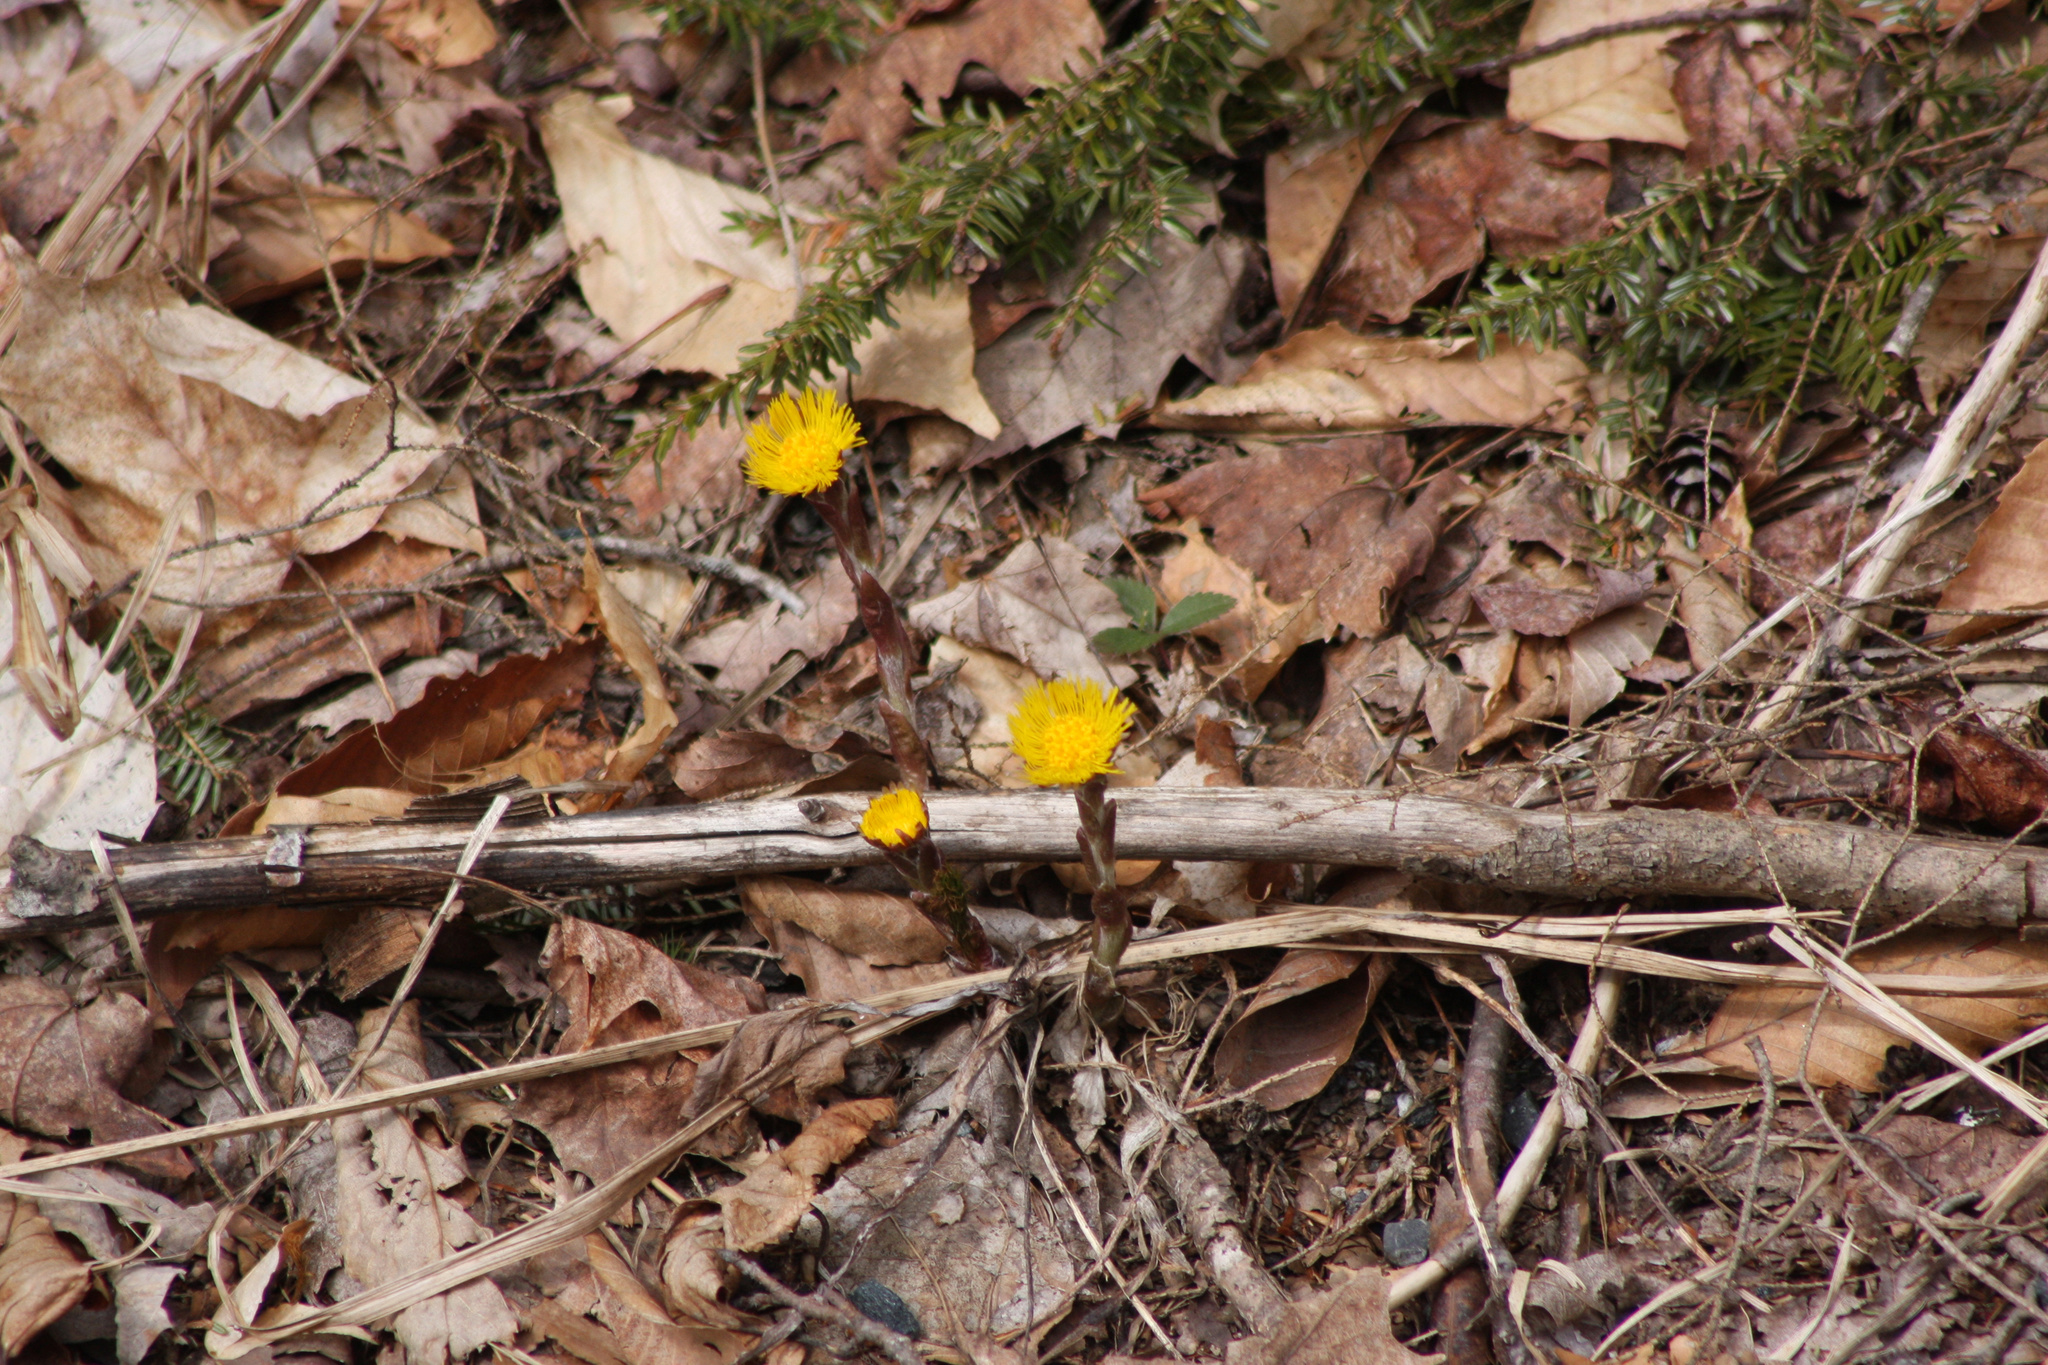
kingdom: Plantae
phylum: Tracheophyta
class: Magnoliopsida
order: Asterales
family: Asteraceae
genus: Tussilago
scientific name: Tussilago farfara
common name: Coltsfoot
